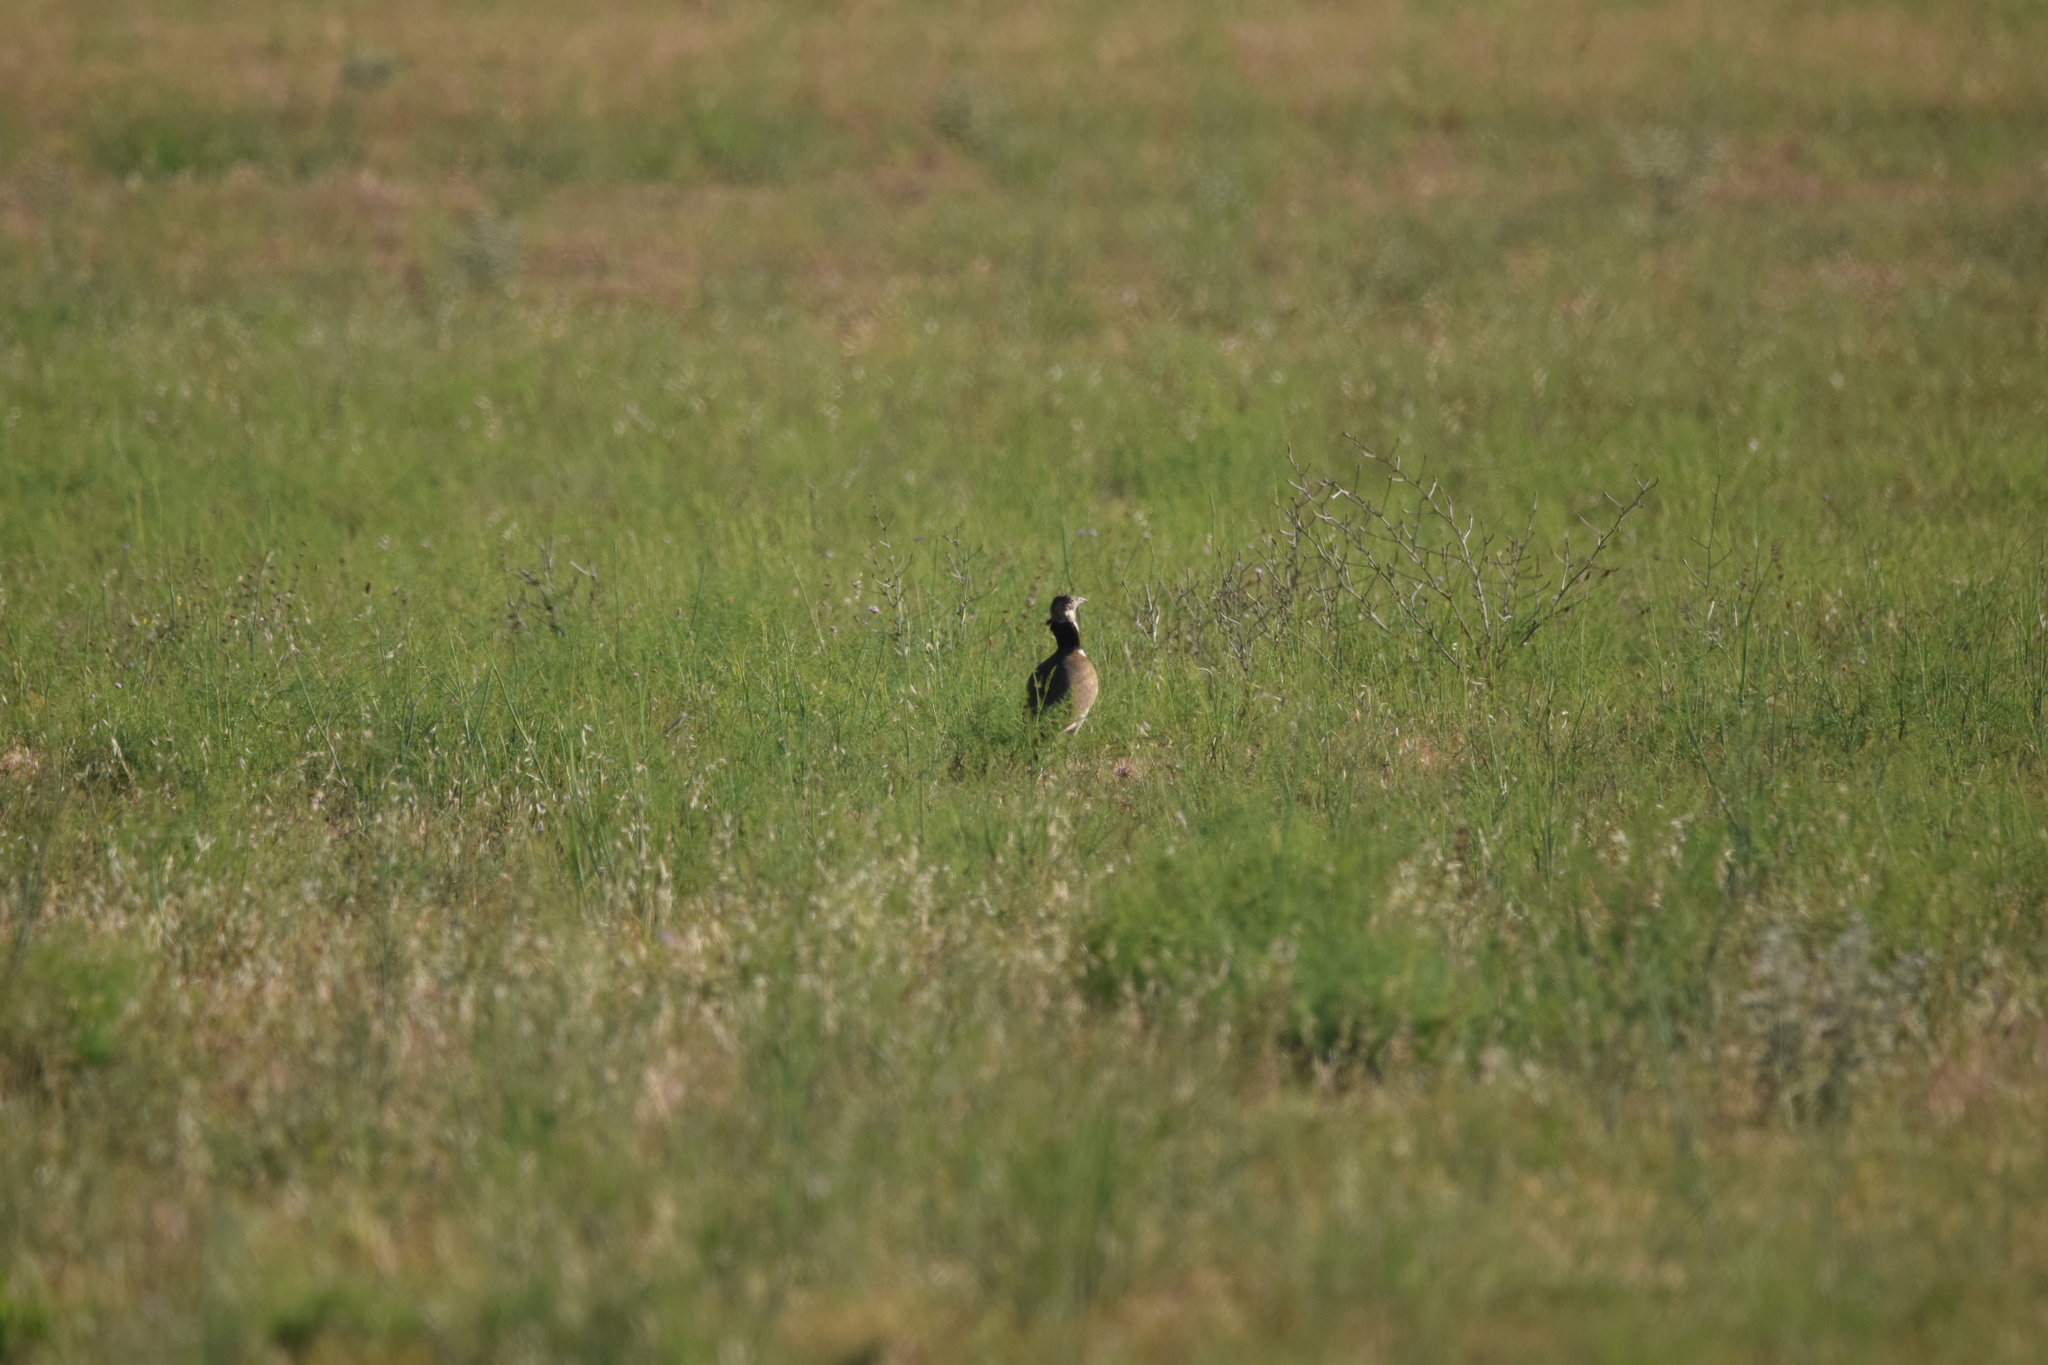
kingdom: Animalia
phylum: Chordata
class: Aves
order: Otidiformes
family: Otididae
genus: Tetrax
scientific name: Tetrax tetrax
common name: Little bustard
